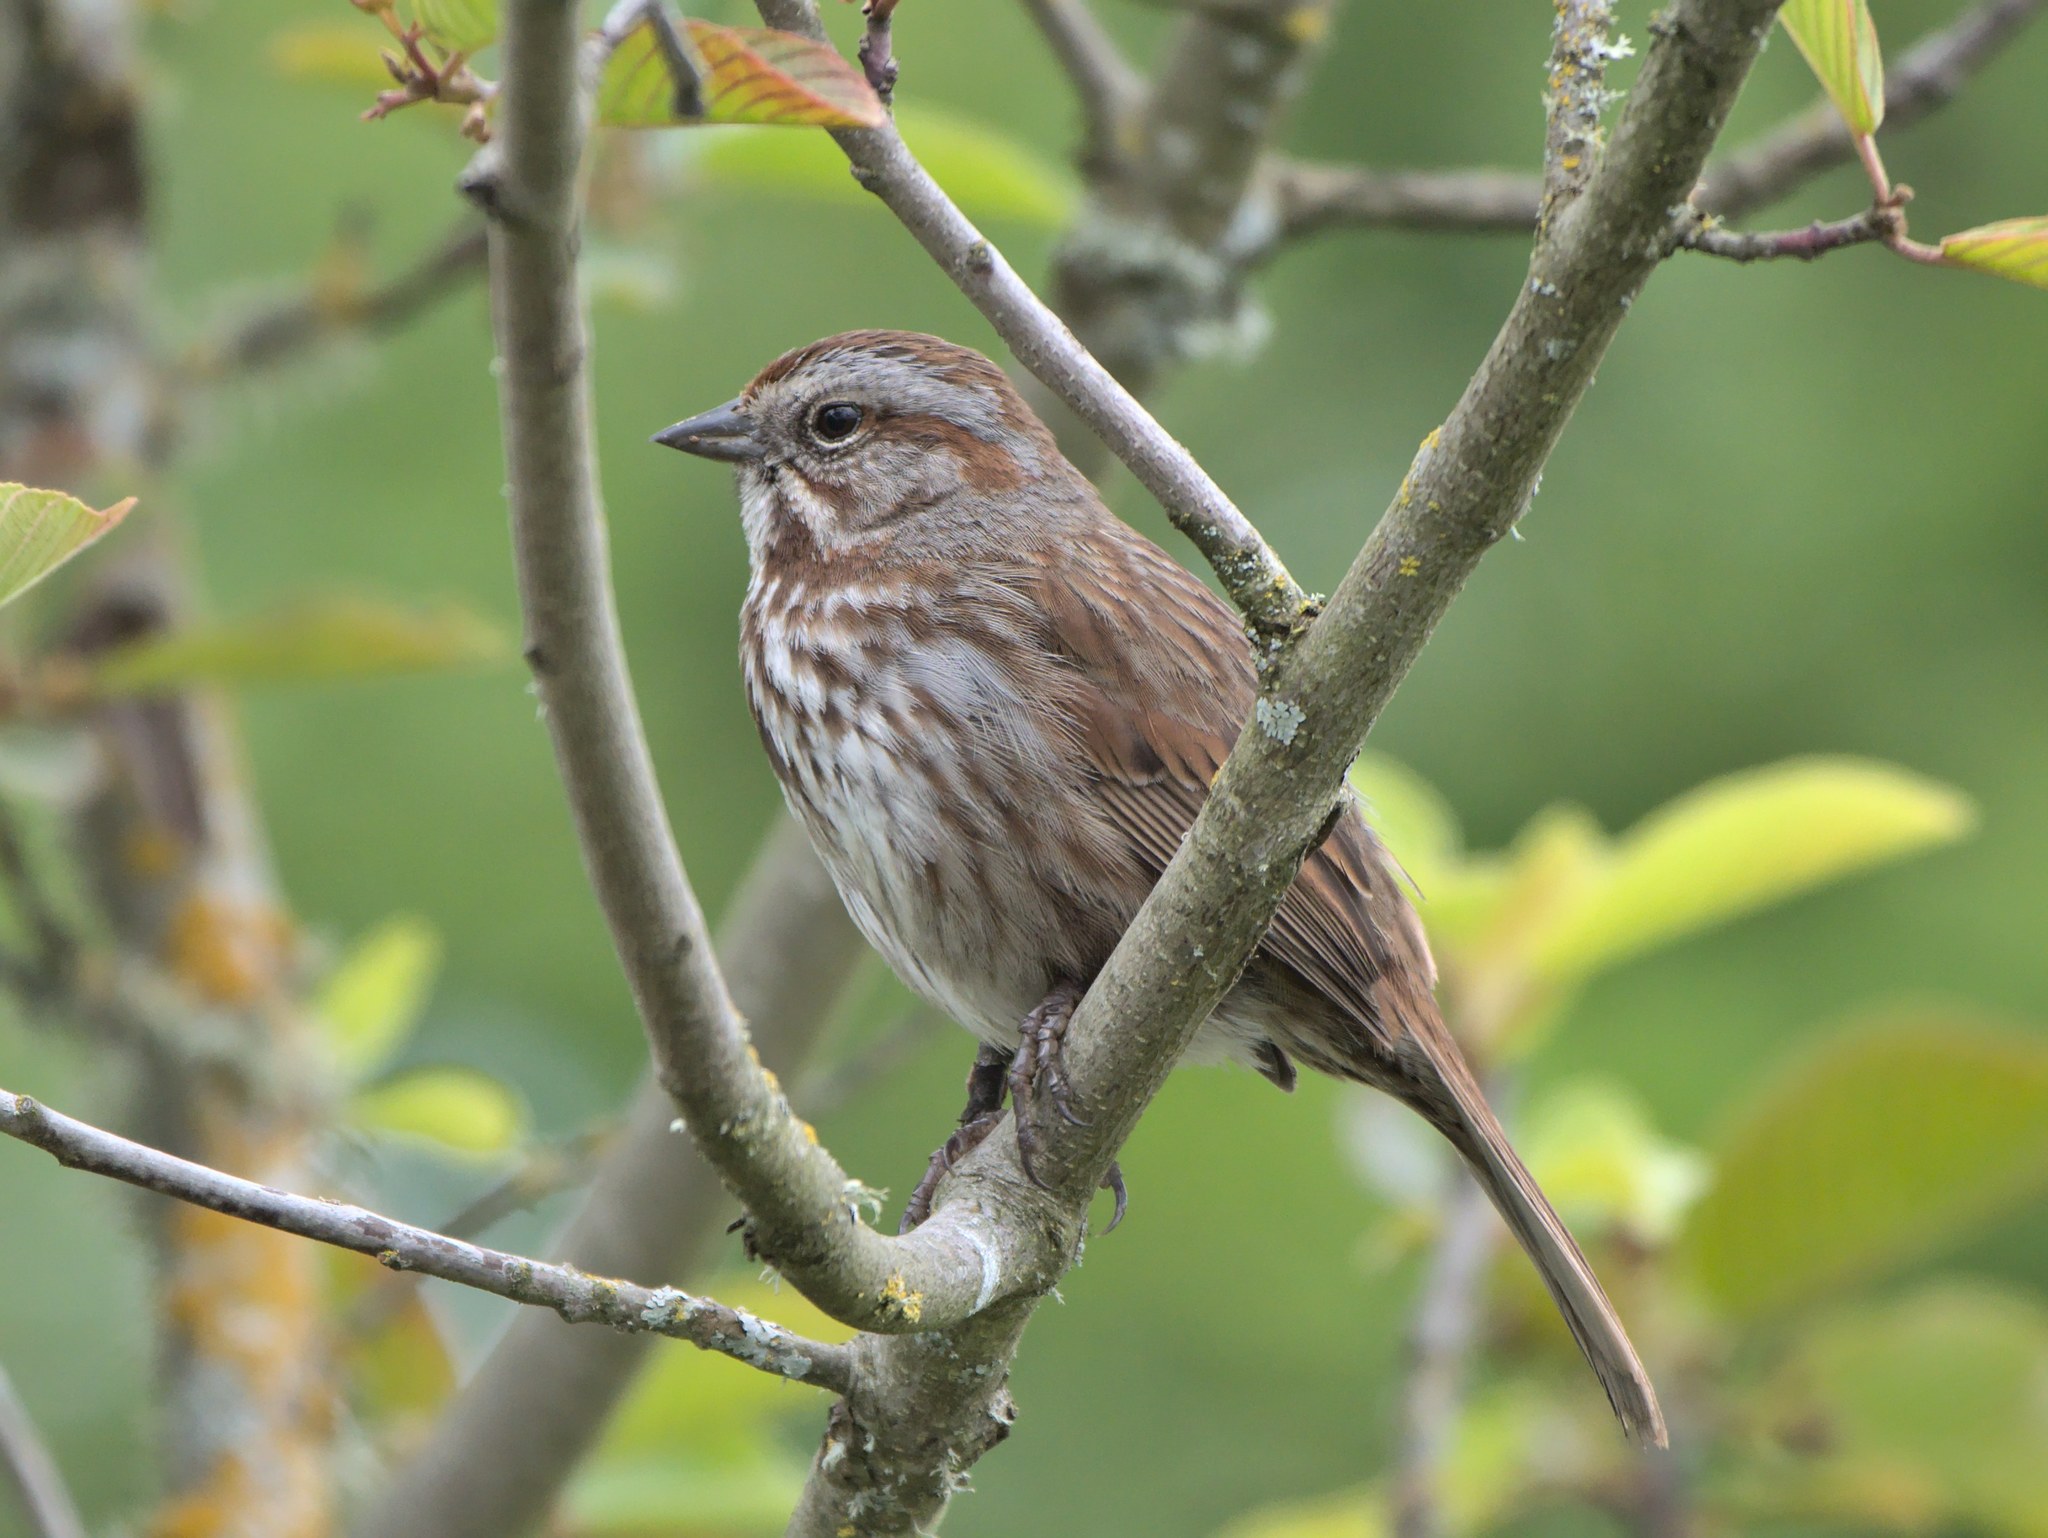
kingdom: Animalia
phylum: Chordata
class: Aves
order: Passeriformes
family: Passerellidae
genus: Melospiza
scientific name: Melospiza melodia
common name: Song sparrow
